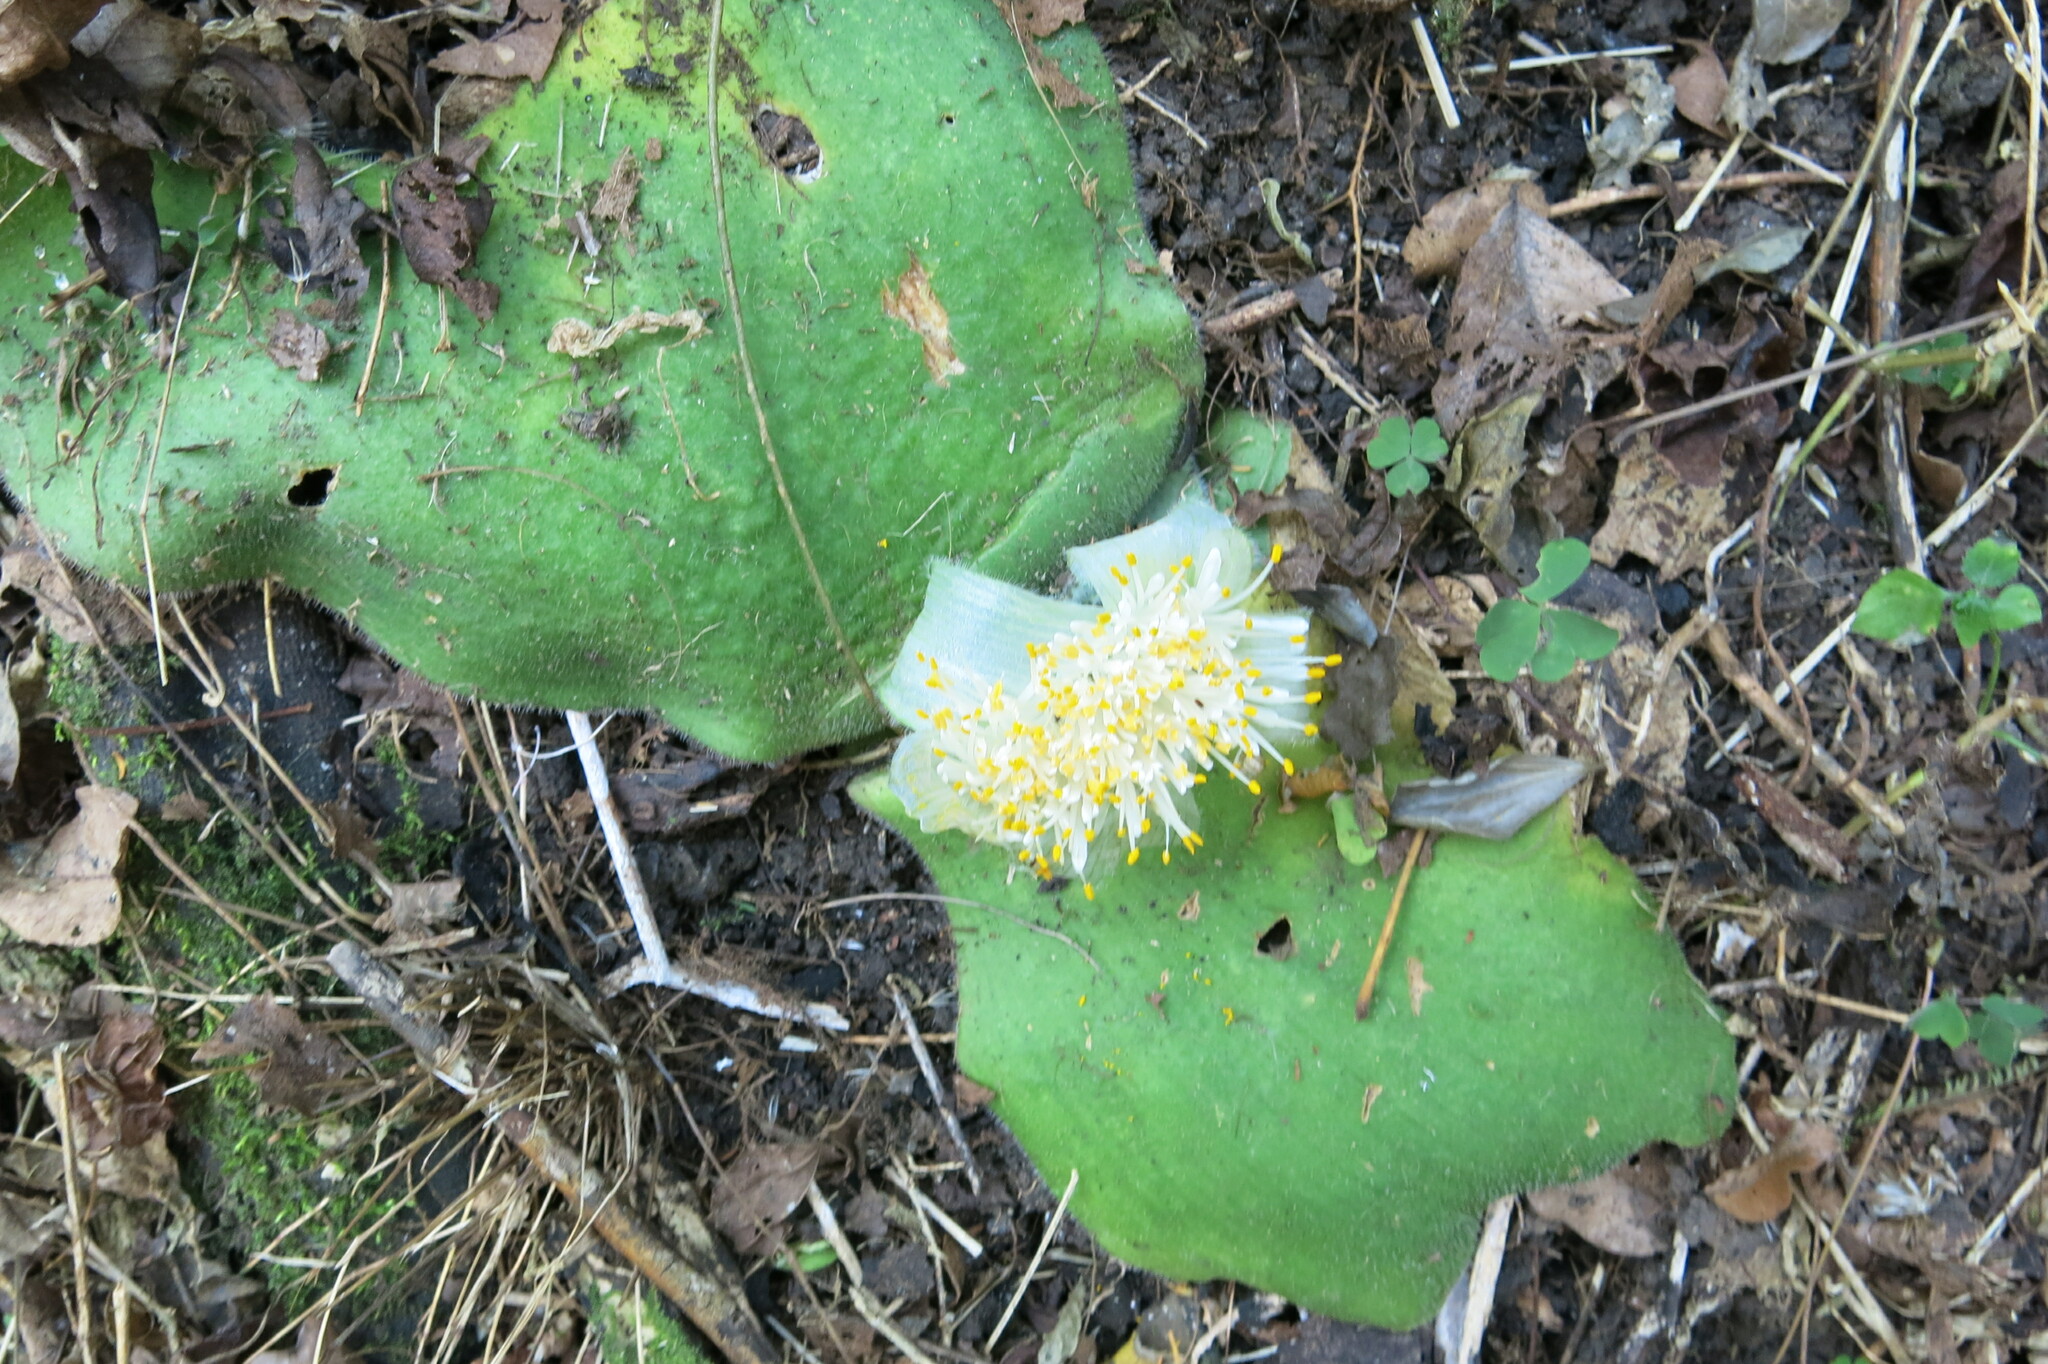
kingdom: Plantae
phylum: Tracheophyta
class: Liliopsida
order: Asparagales
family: Amaryllidaceae
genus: Haemanthus
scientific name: Haemanthus deformis
